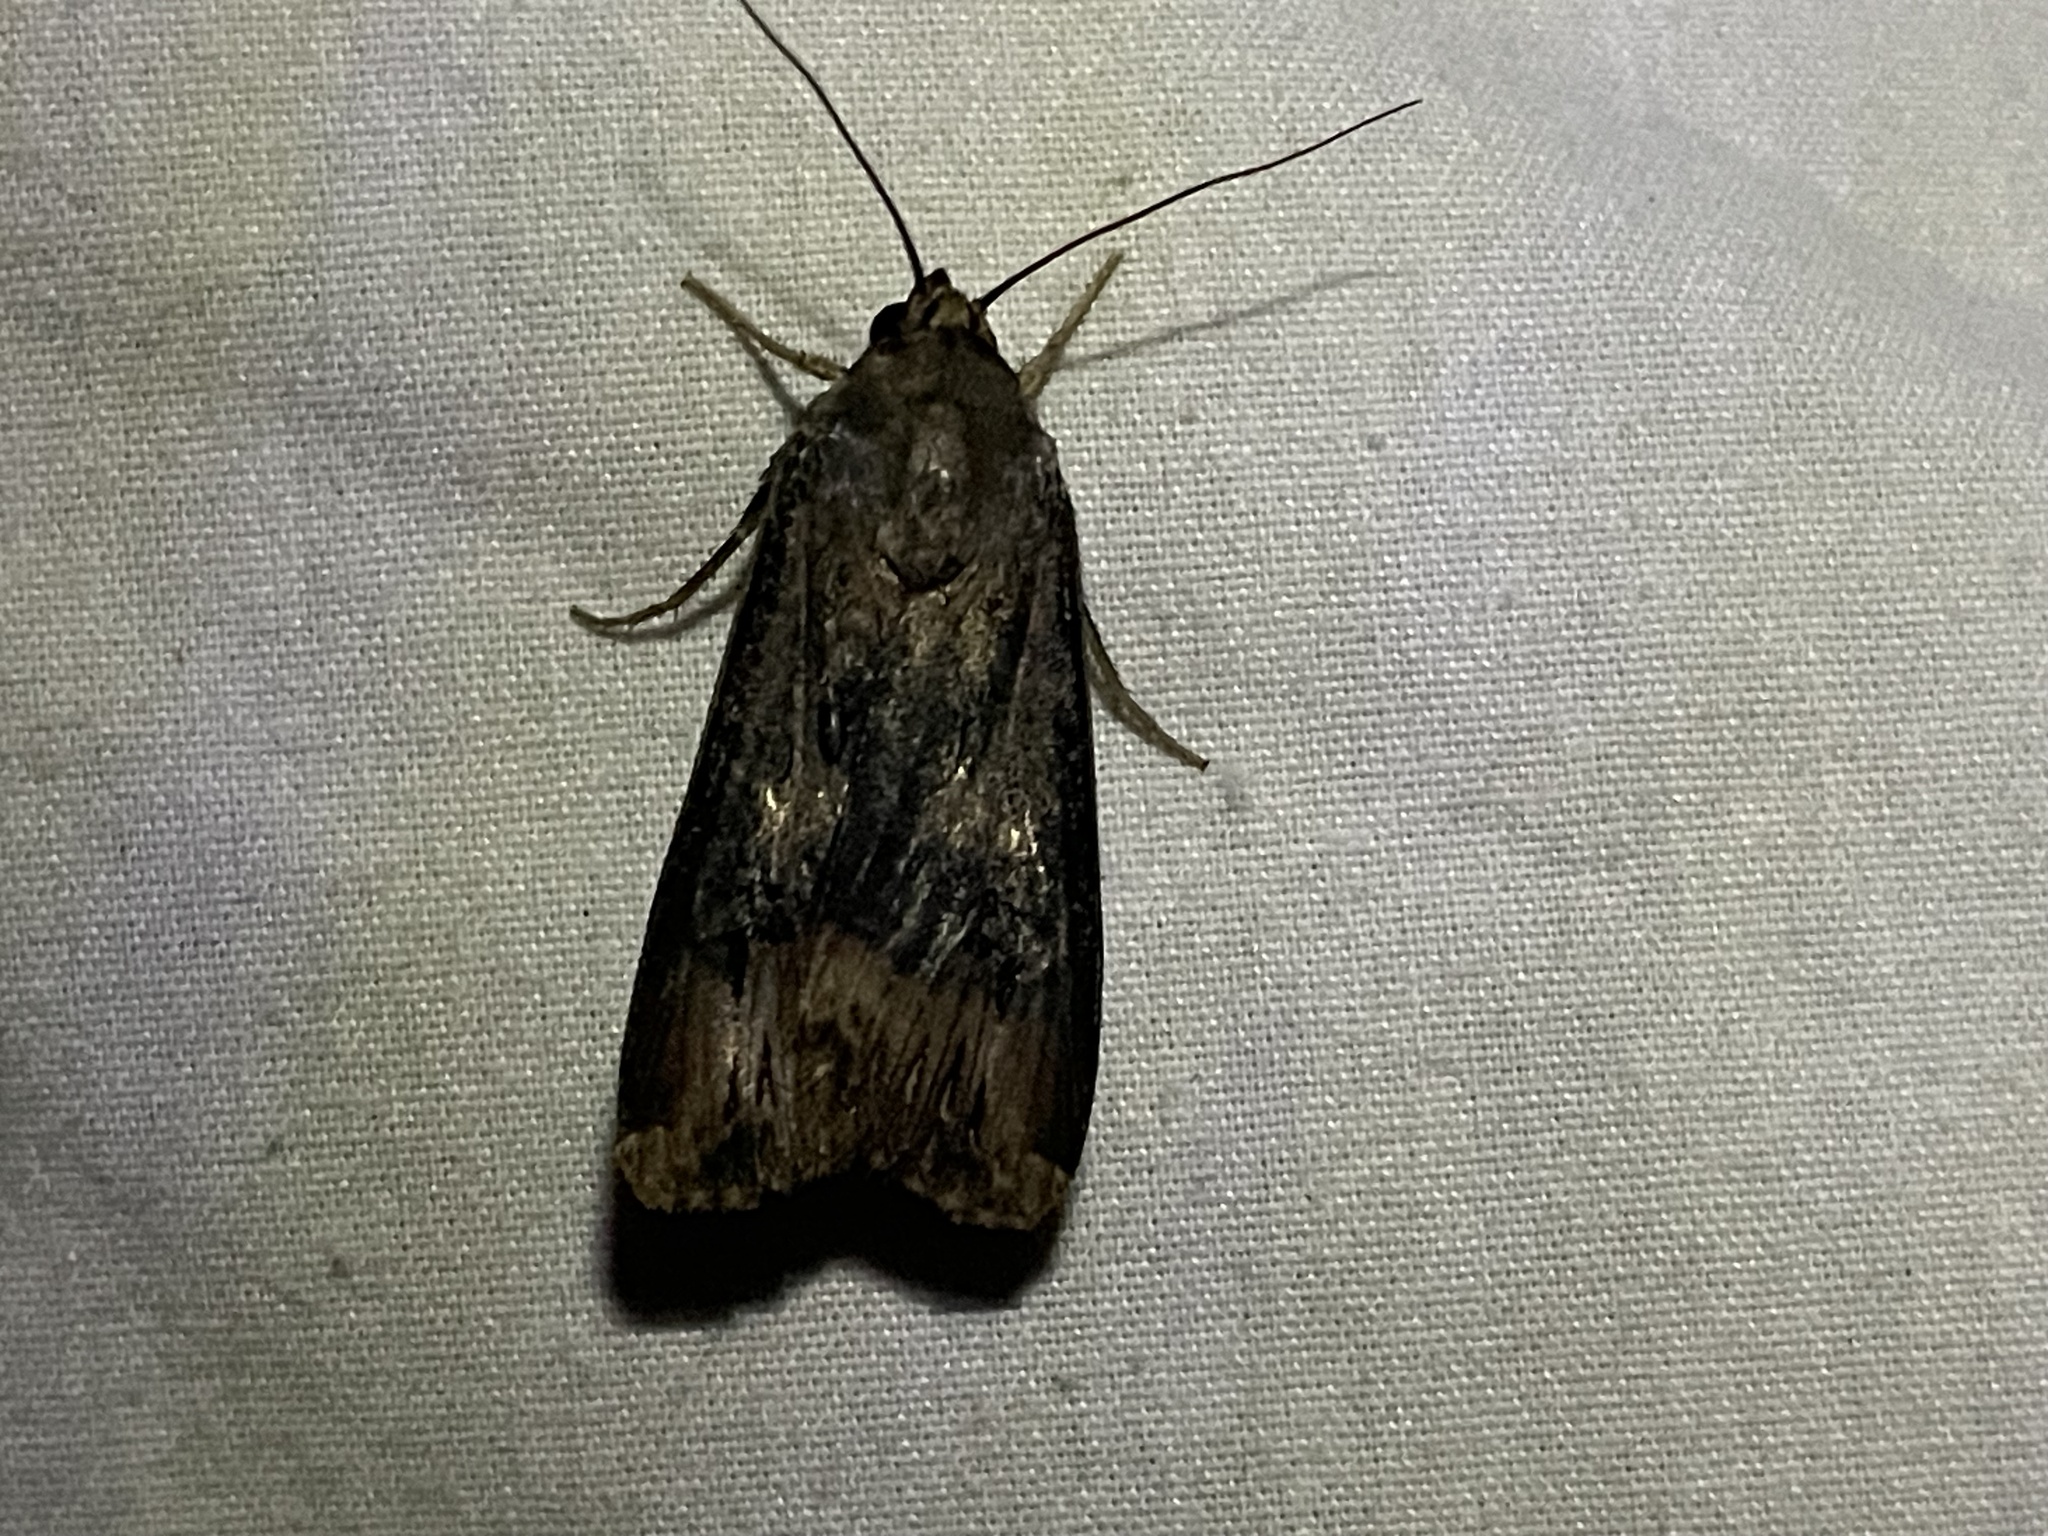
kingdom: Animalia
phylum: Arthropoda
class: Insecta
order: Lepidoptera
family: Noctuidae
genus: Agrotis
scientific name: Agrotis ipsilon
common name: Dark sword-grass
